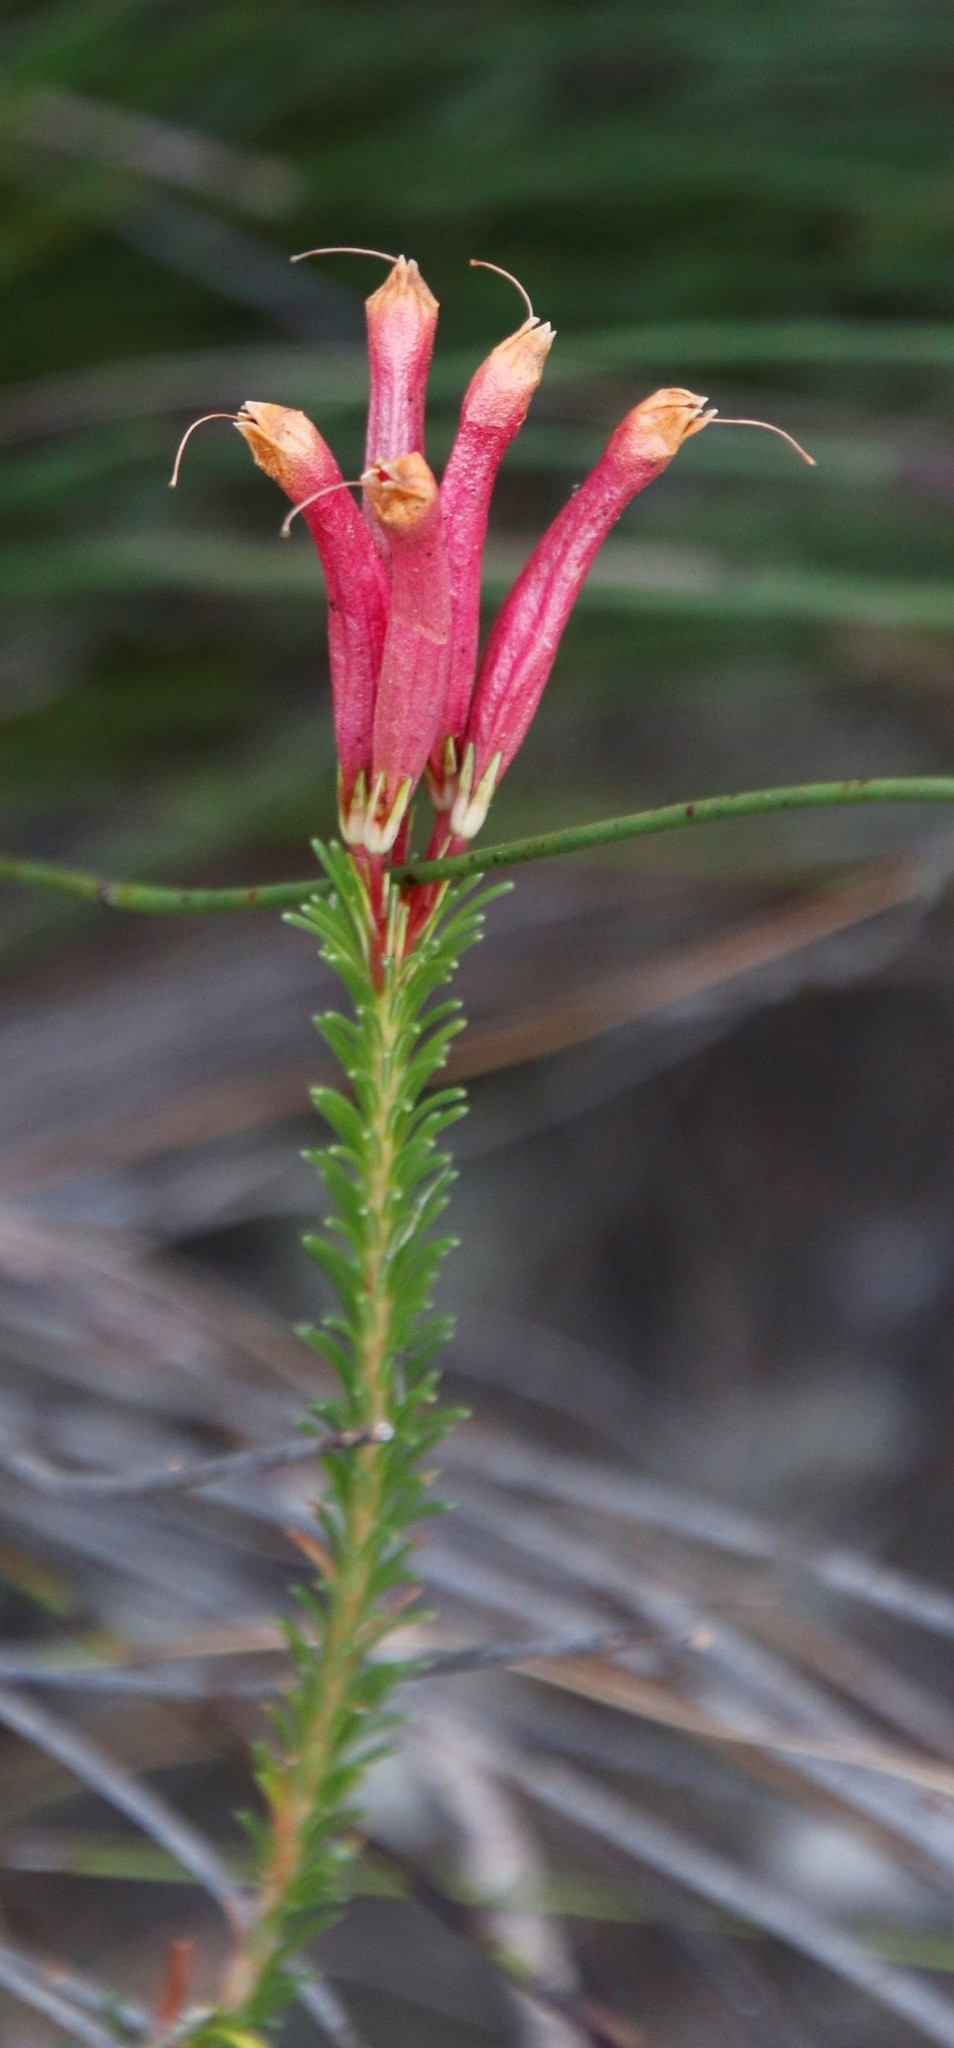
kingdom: Plantae
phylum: Tracheophyta
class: Magnoliopsida
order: Ericales
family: Ericaceae
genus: Erica
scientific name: Erica fascicularis
